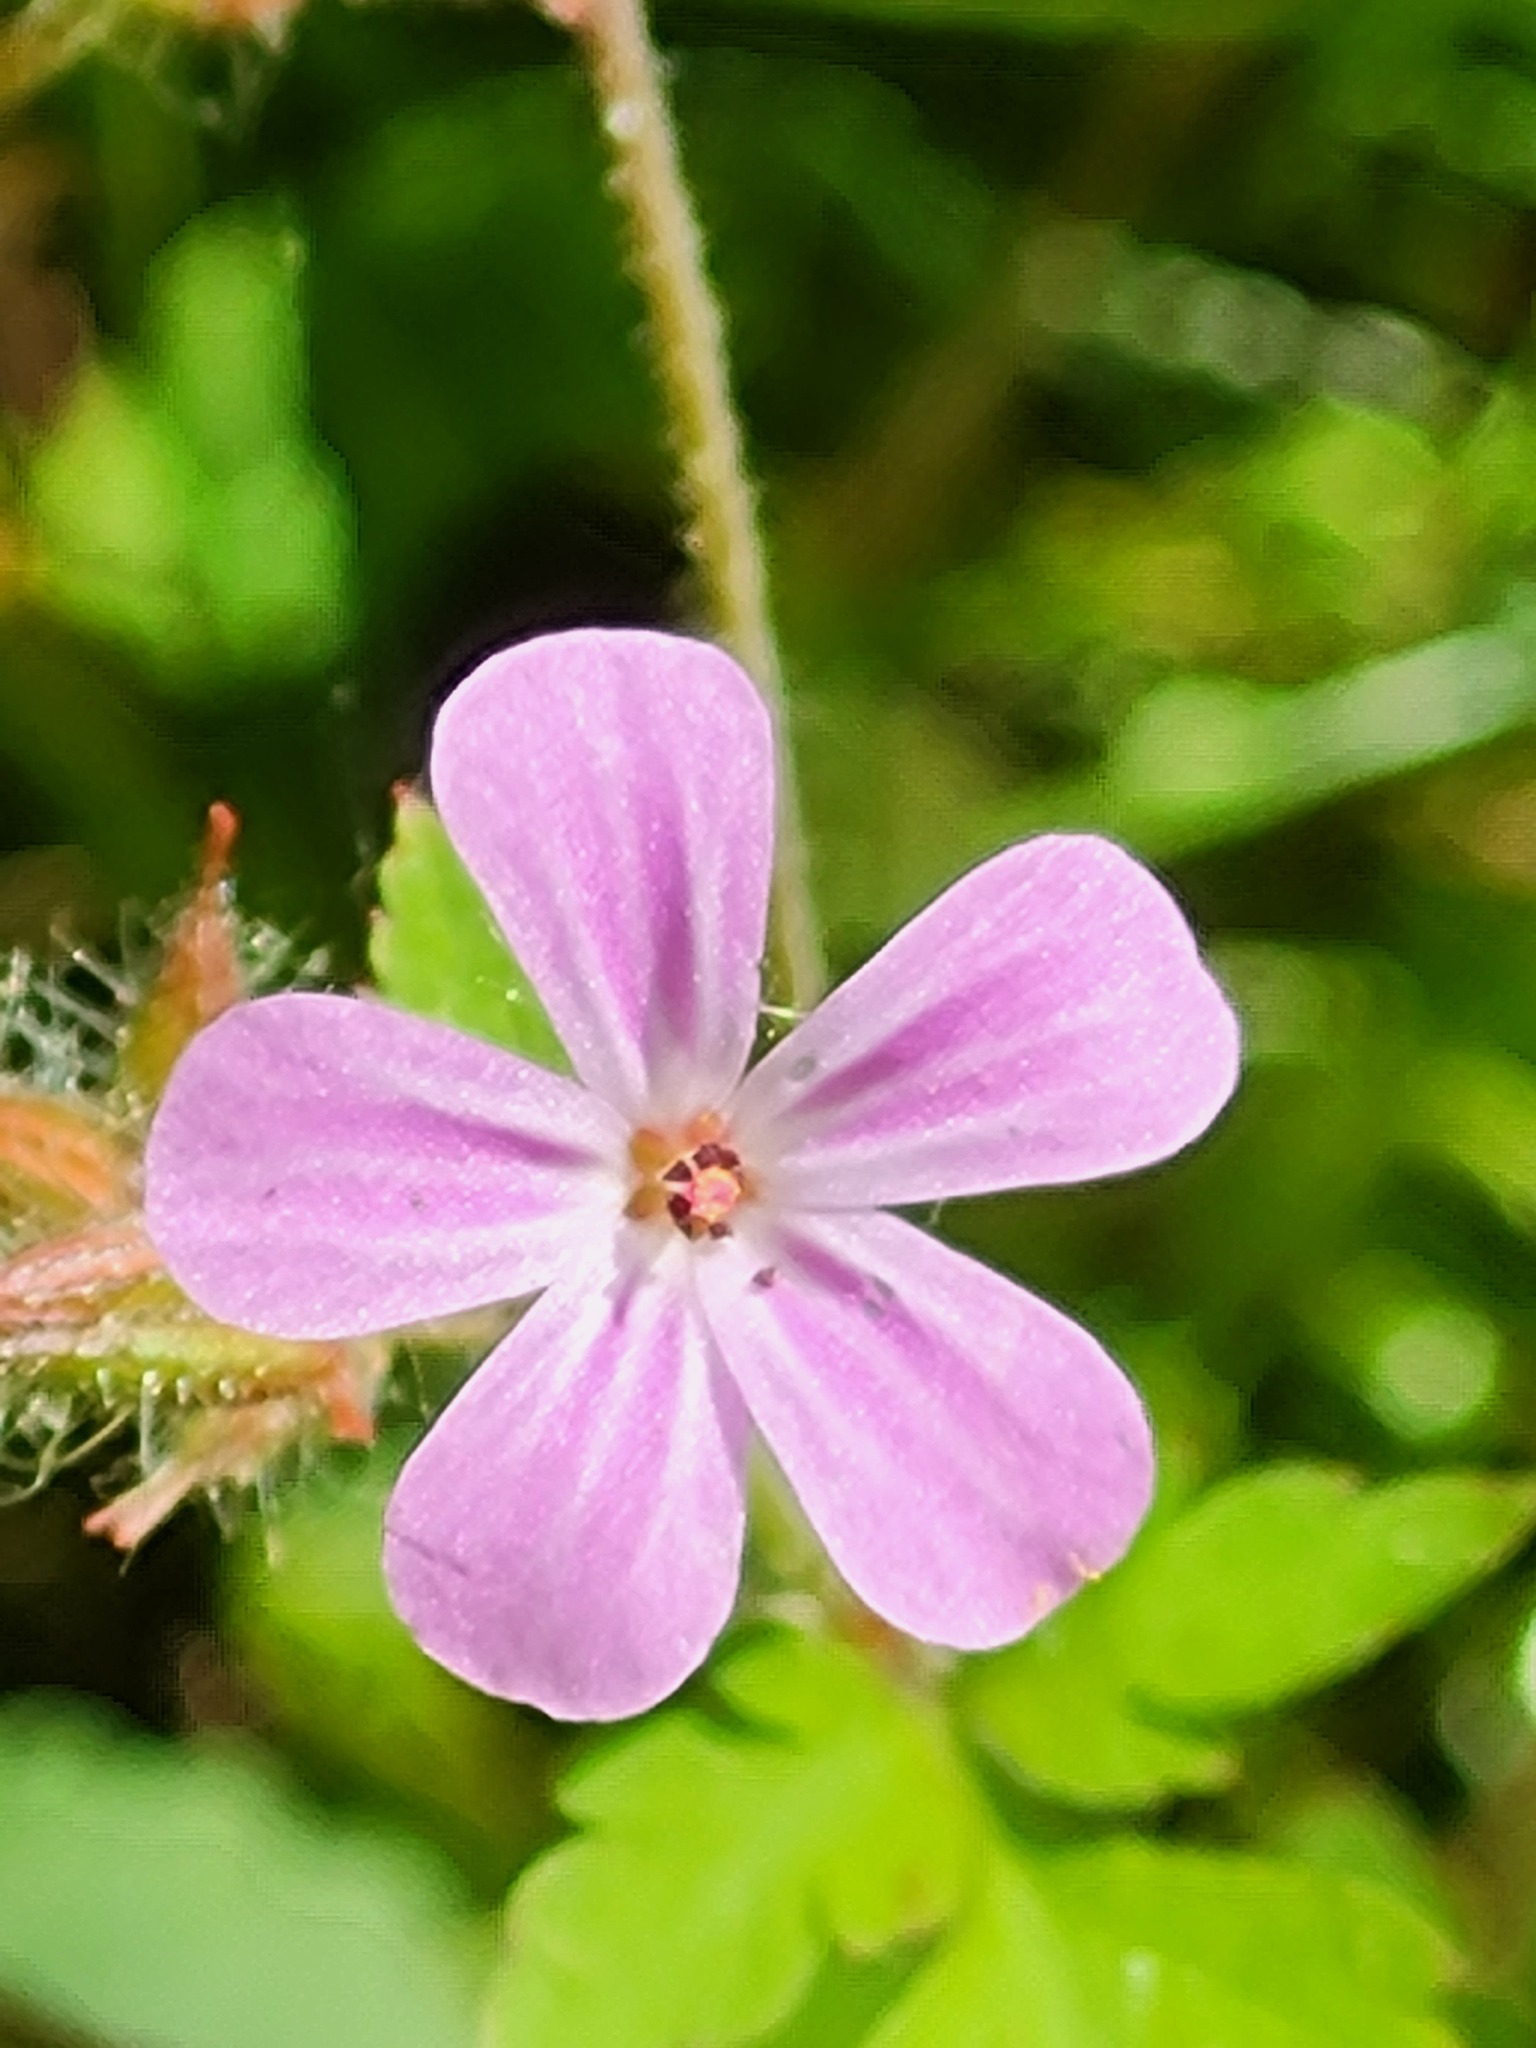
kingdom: Plantae
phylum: Tracheophyta
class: Magnoliopsida
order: Geraniales
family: Geraniaceae
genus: Geranium
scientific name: Geranium robertianum
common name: Herb-robert
